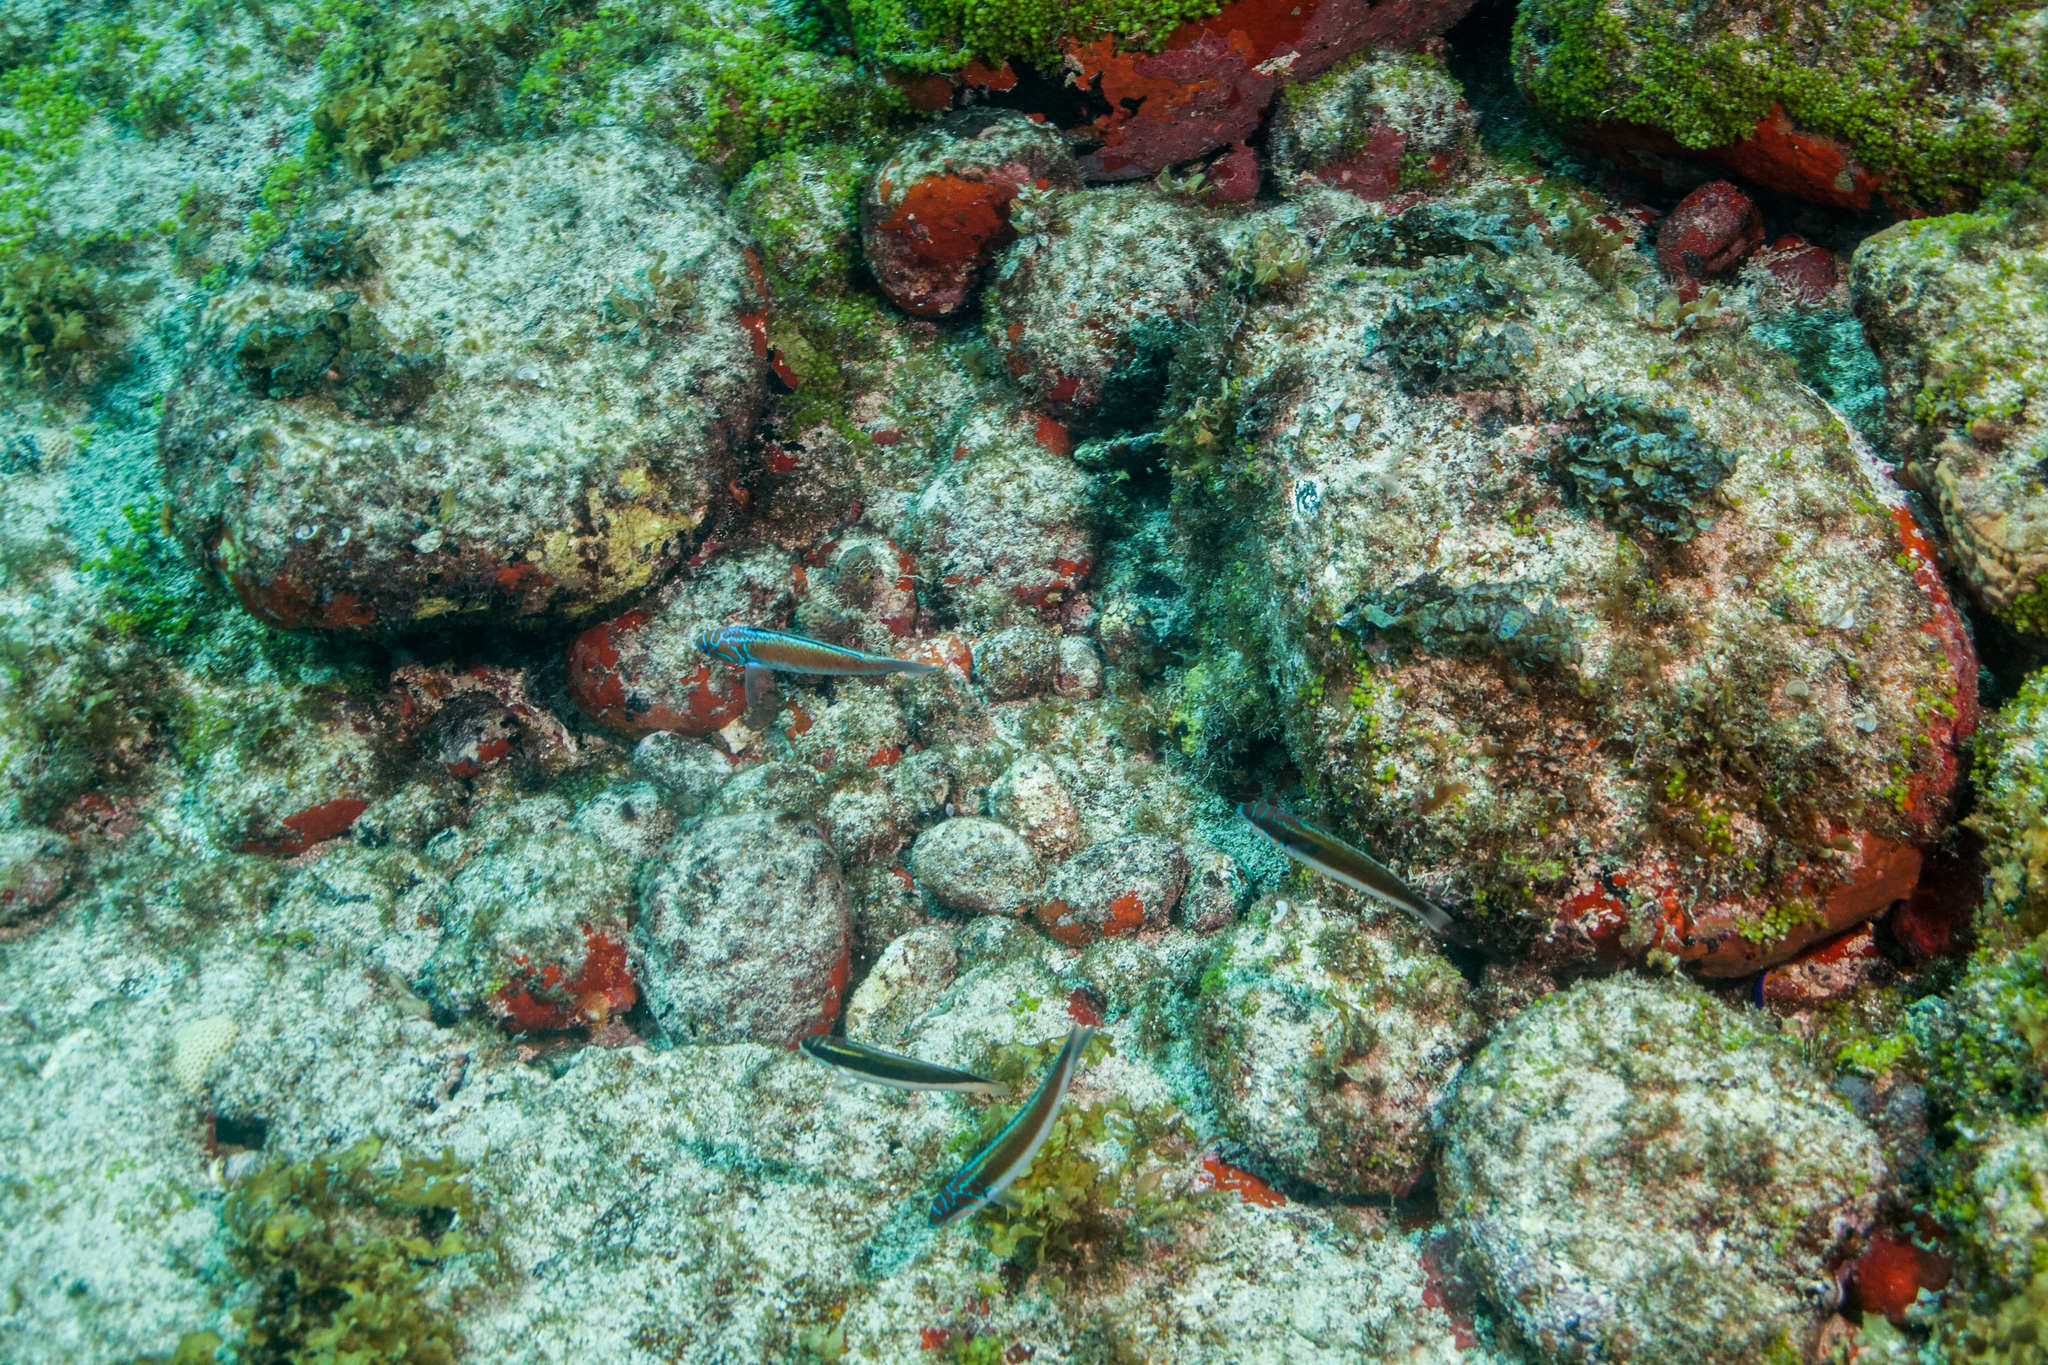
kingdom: Animalia
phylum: Chordata
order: Perciformes
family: Labridae
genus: Thalassoma
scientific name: Thalassoma noronhanum
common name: Noronha wrasse
